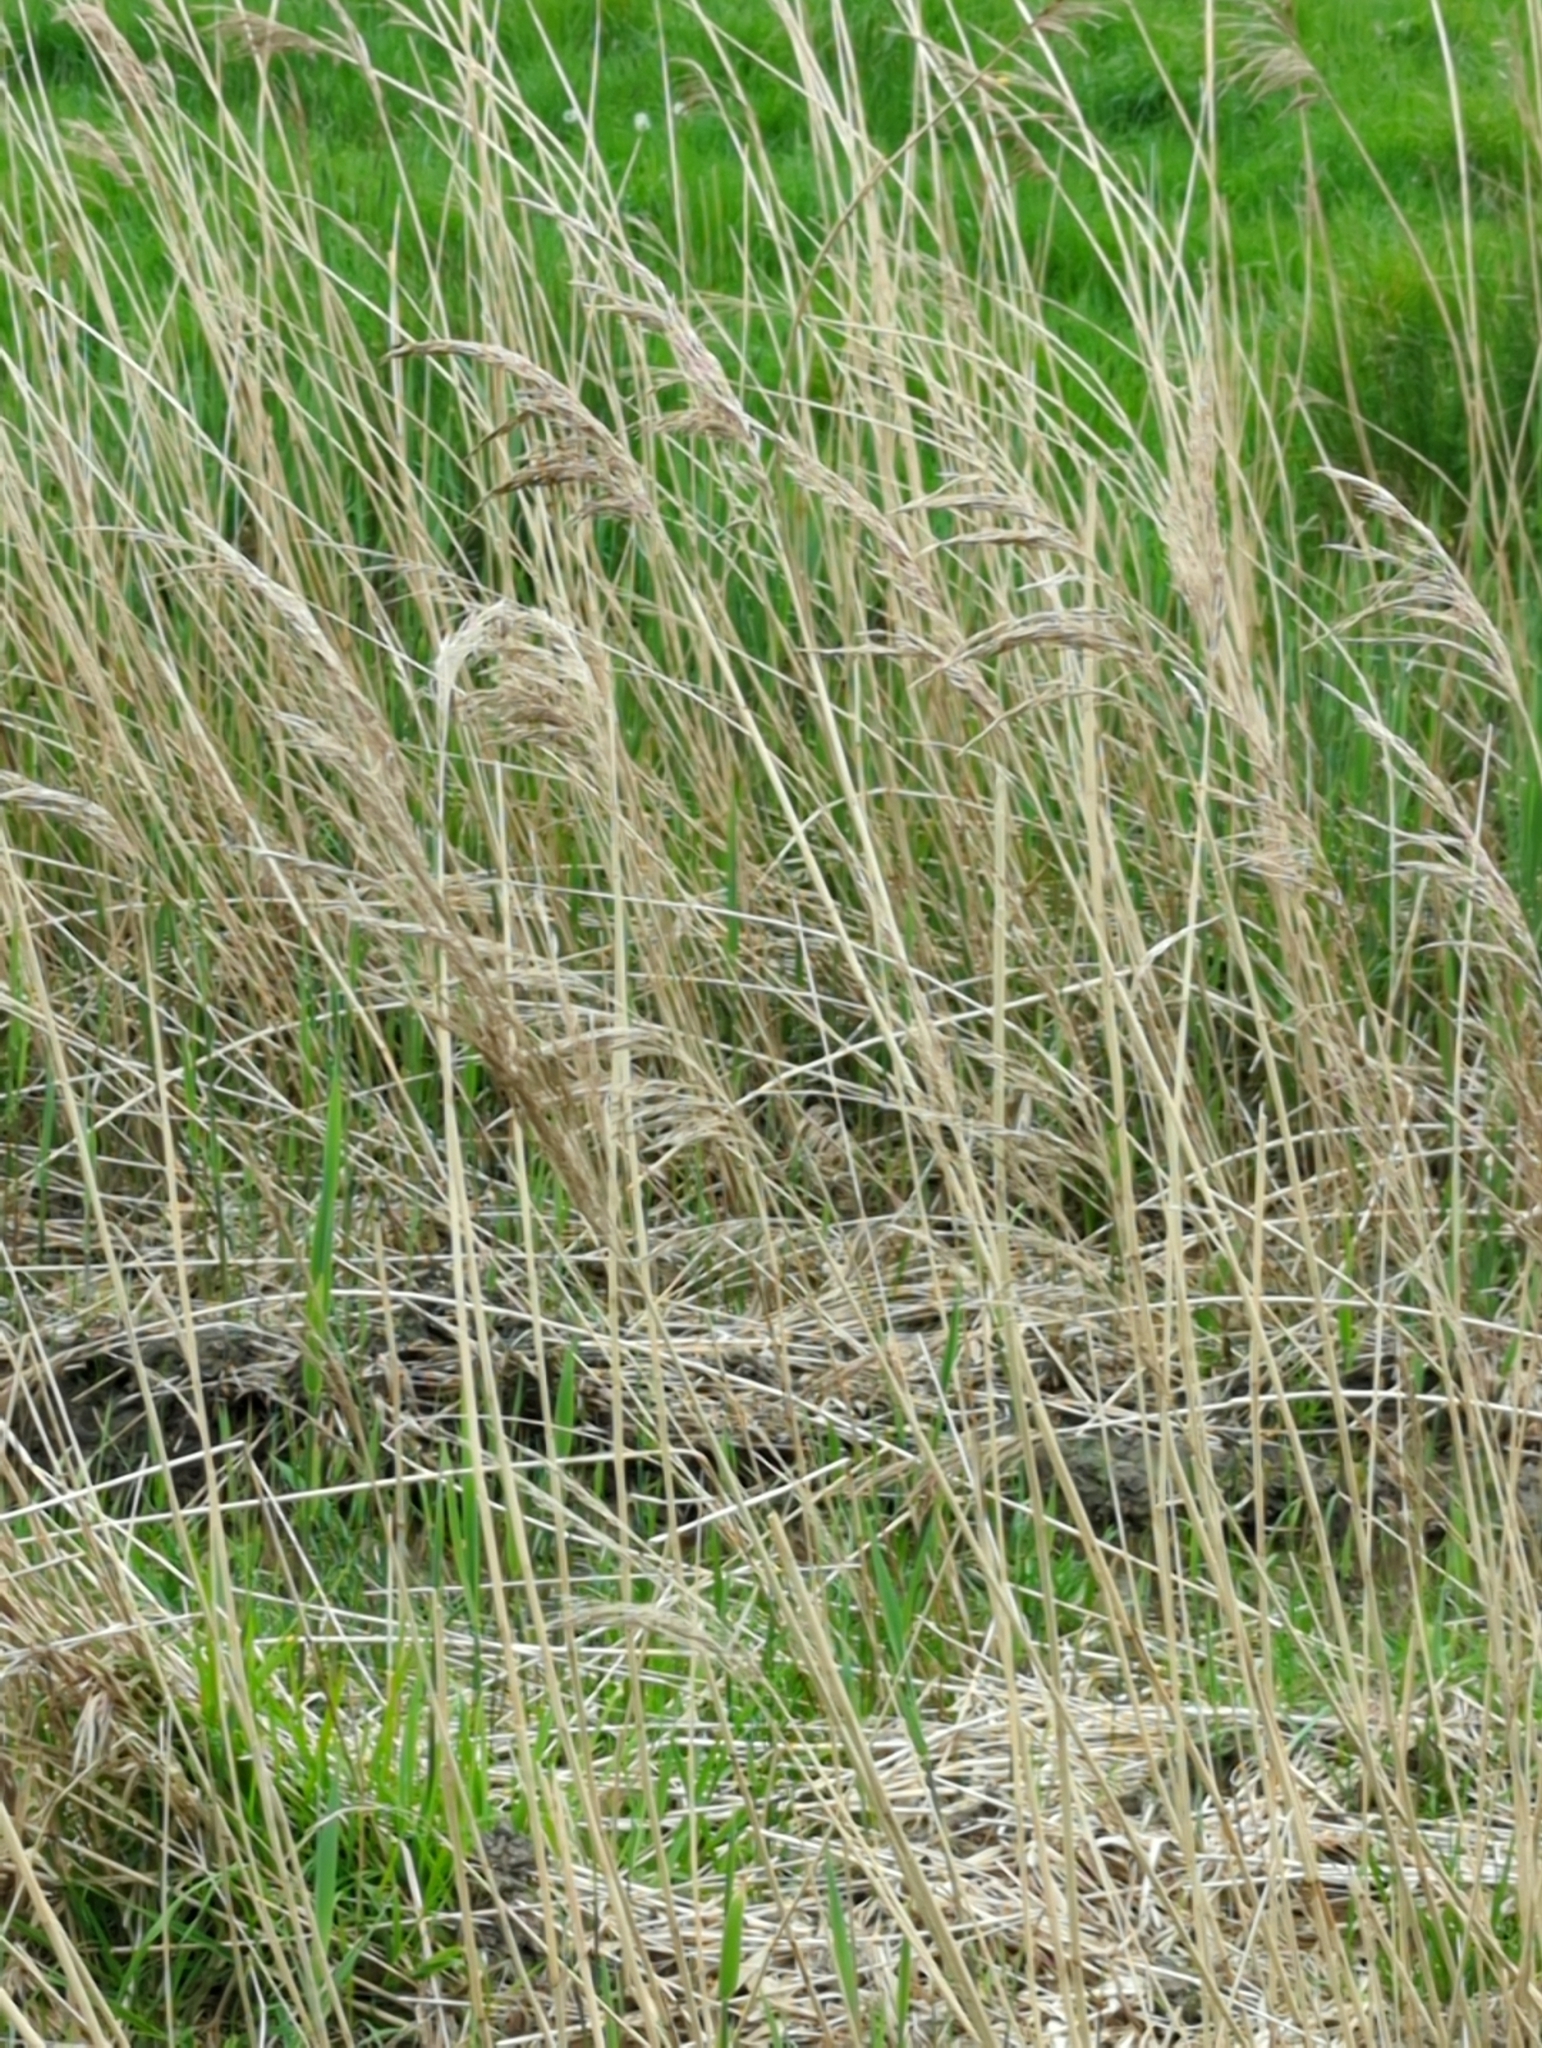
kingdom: Plantae
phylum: Tracheophyta
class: Liliopsida
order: Poales
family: Poaceae
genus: Phragmites
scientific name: Phragmites australis
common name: Common reed
